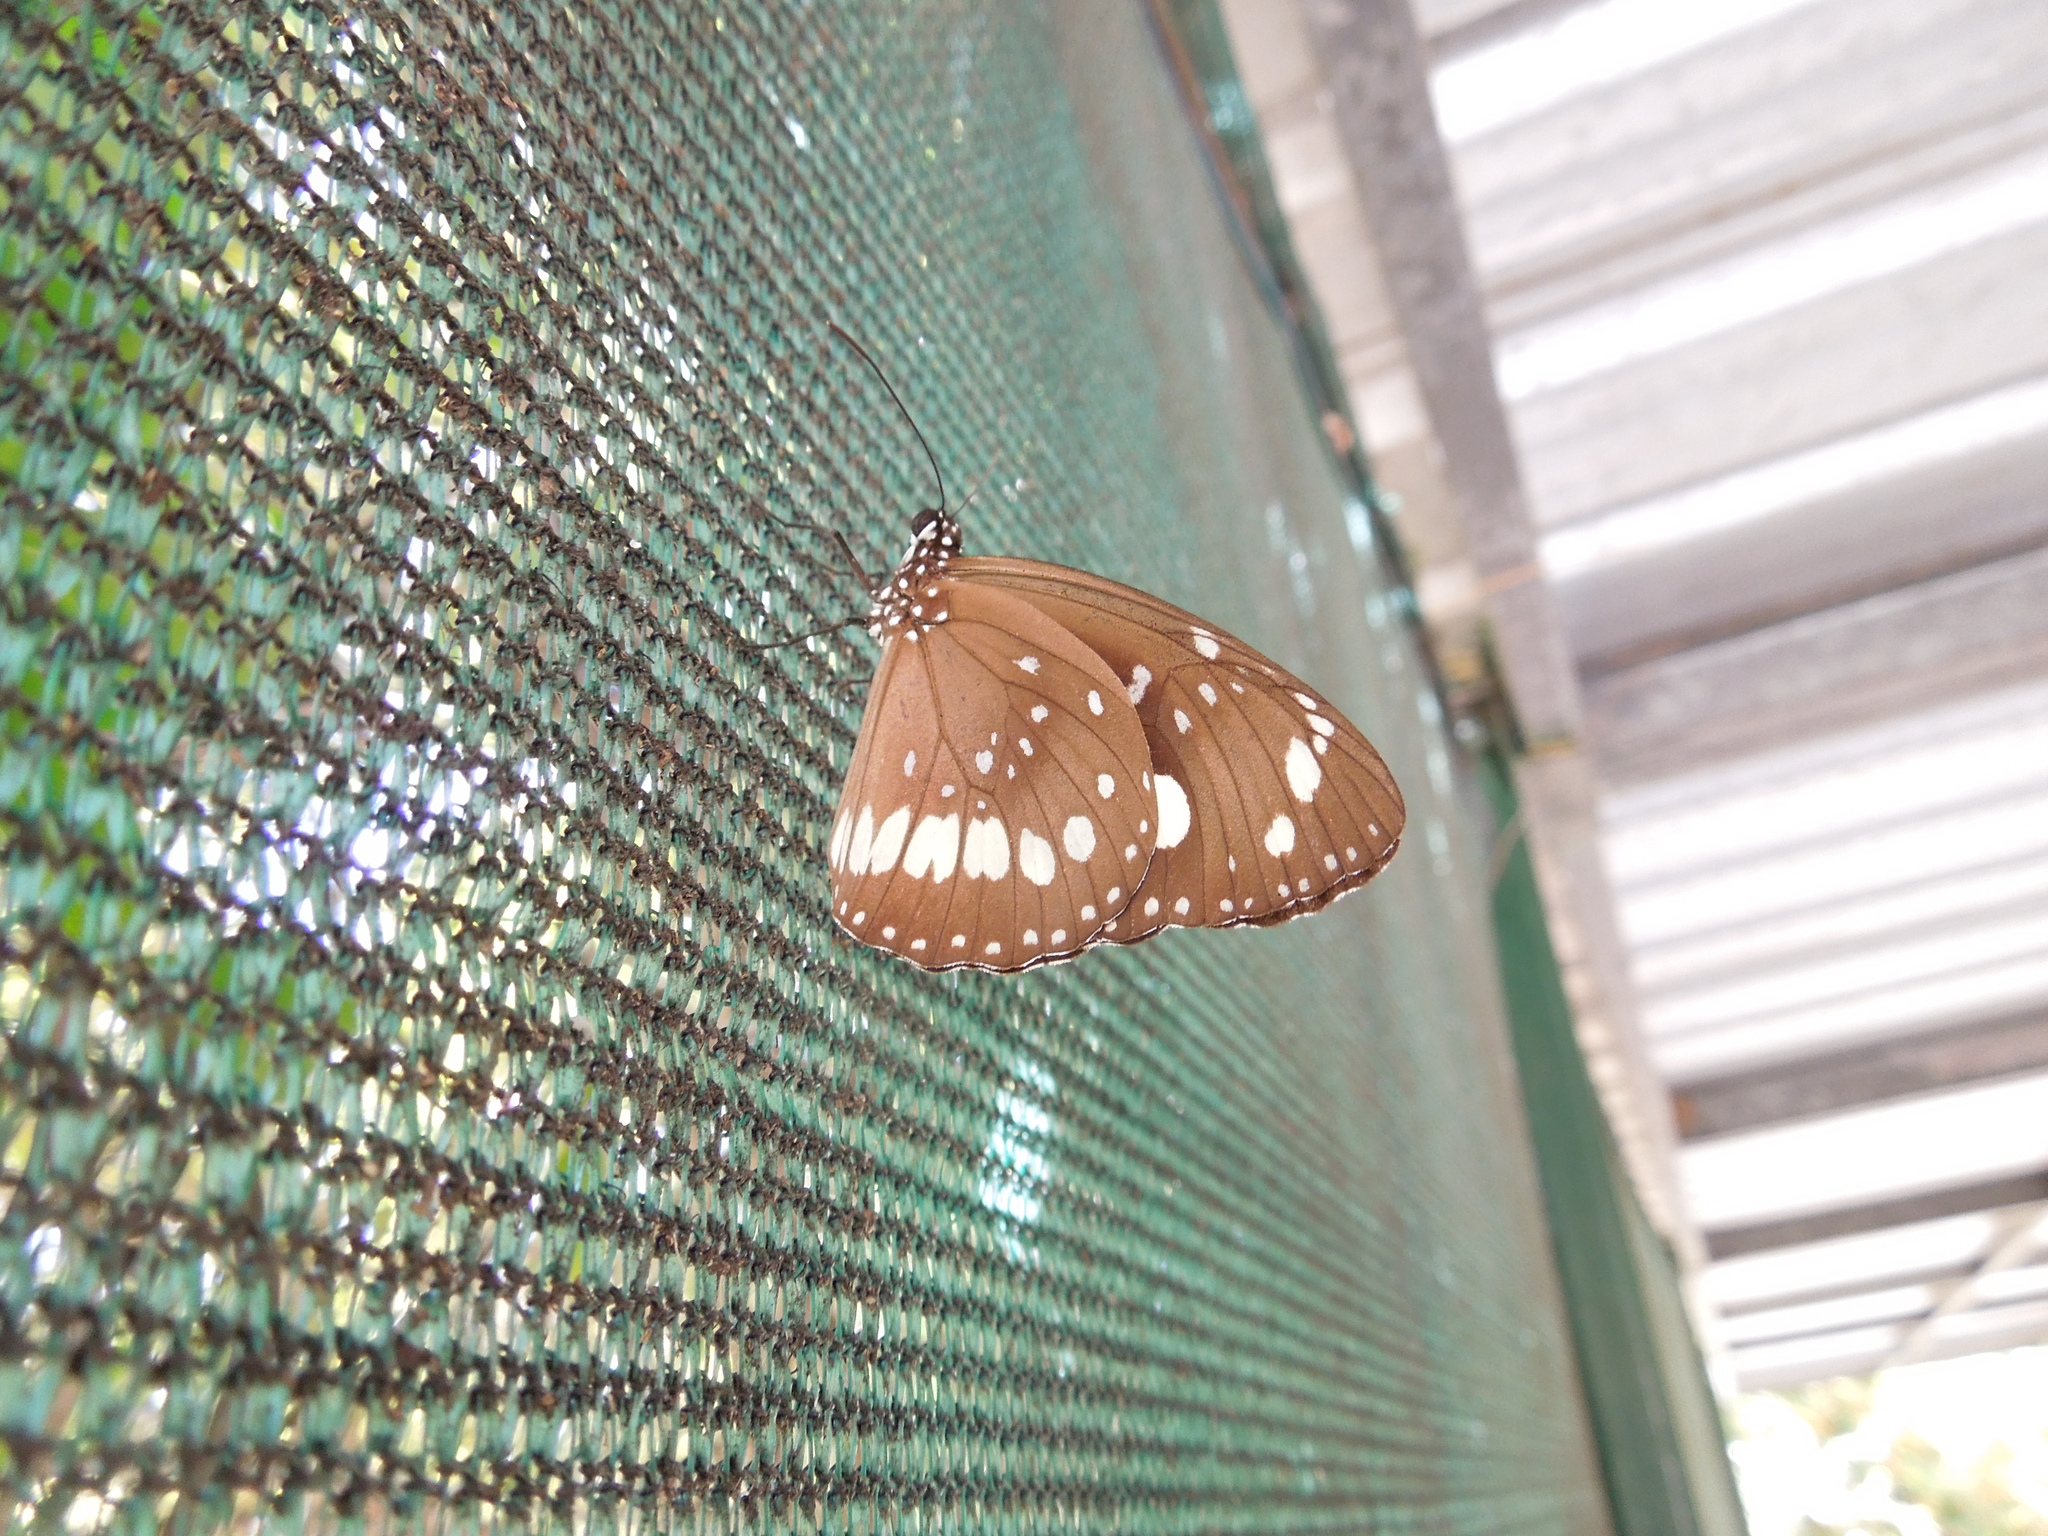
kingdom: Animalia
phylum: Arthropoda
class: Insecta
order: Lepidoptera
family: Nymphalidae
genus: Euploea
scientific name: Euploea core
